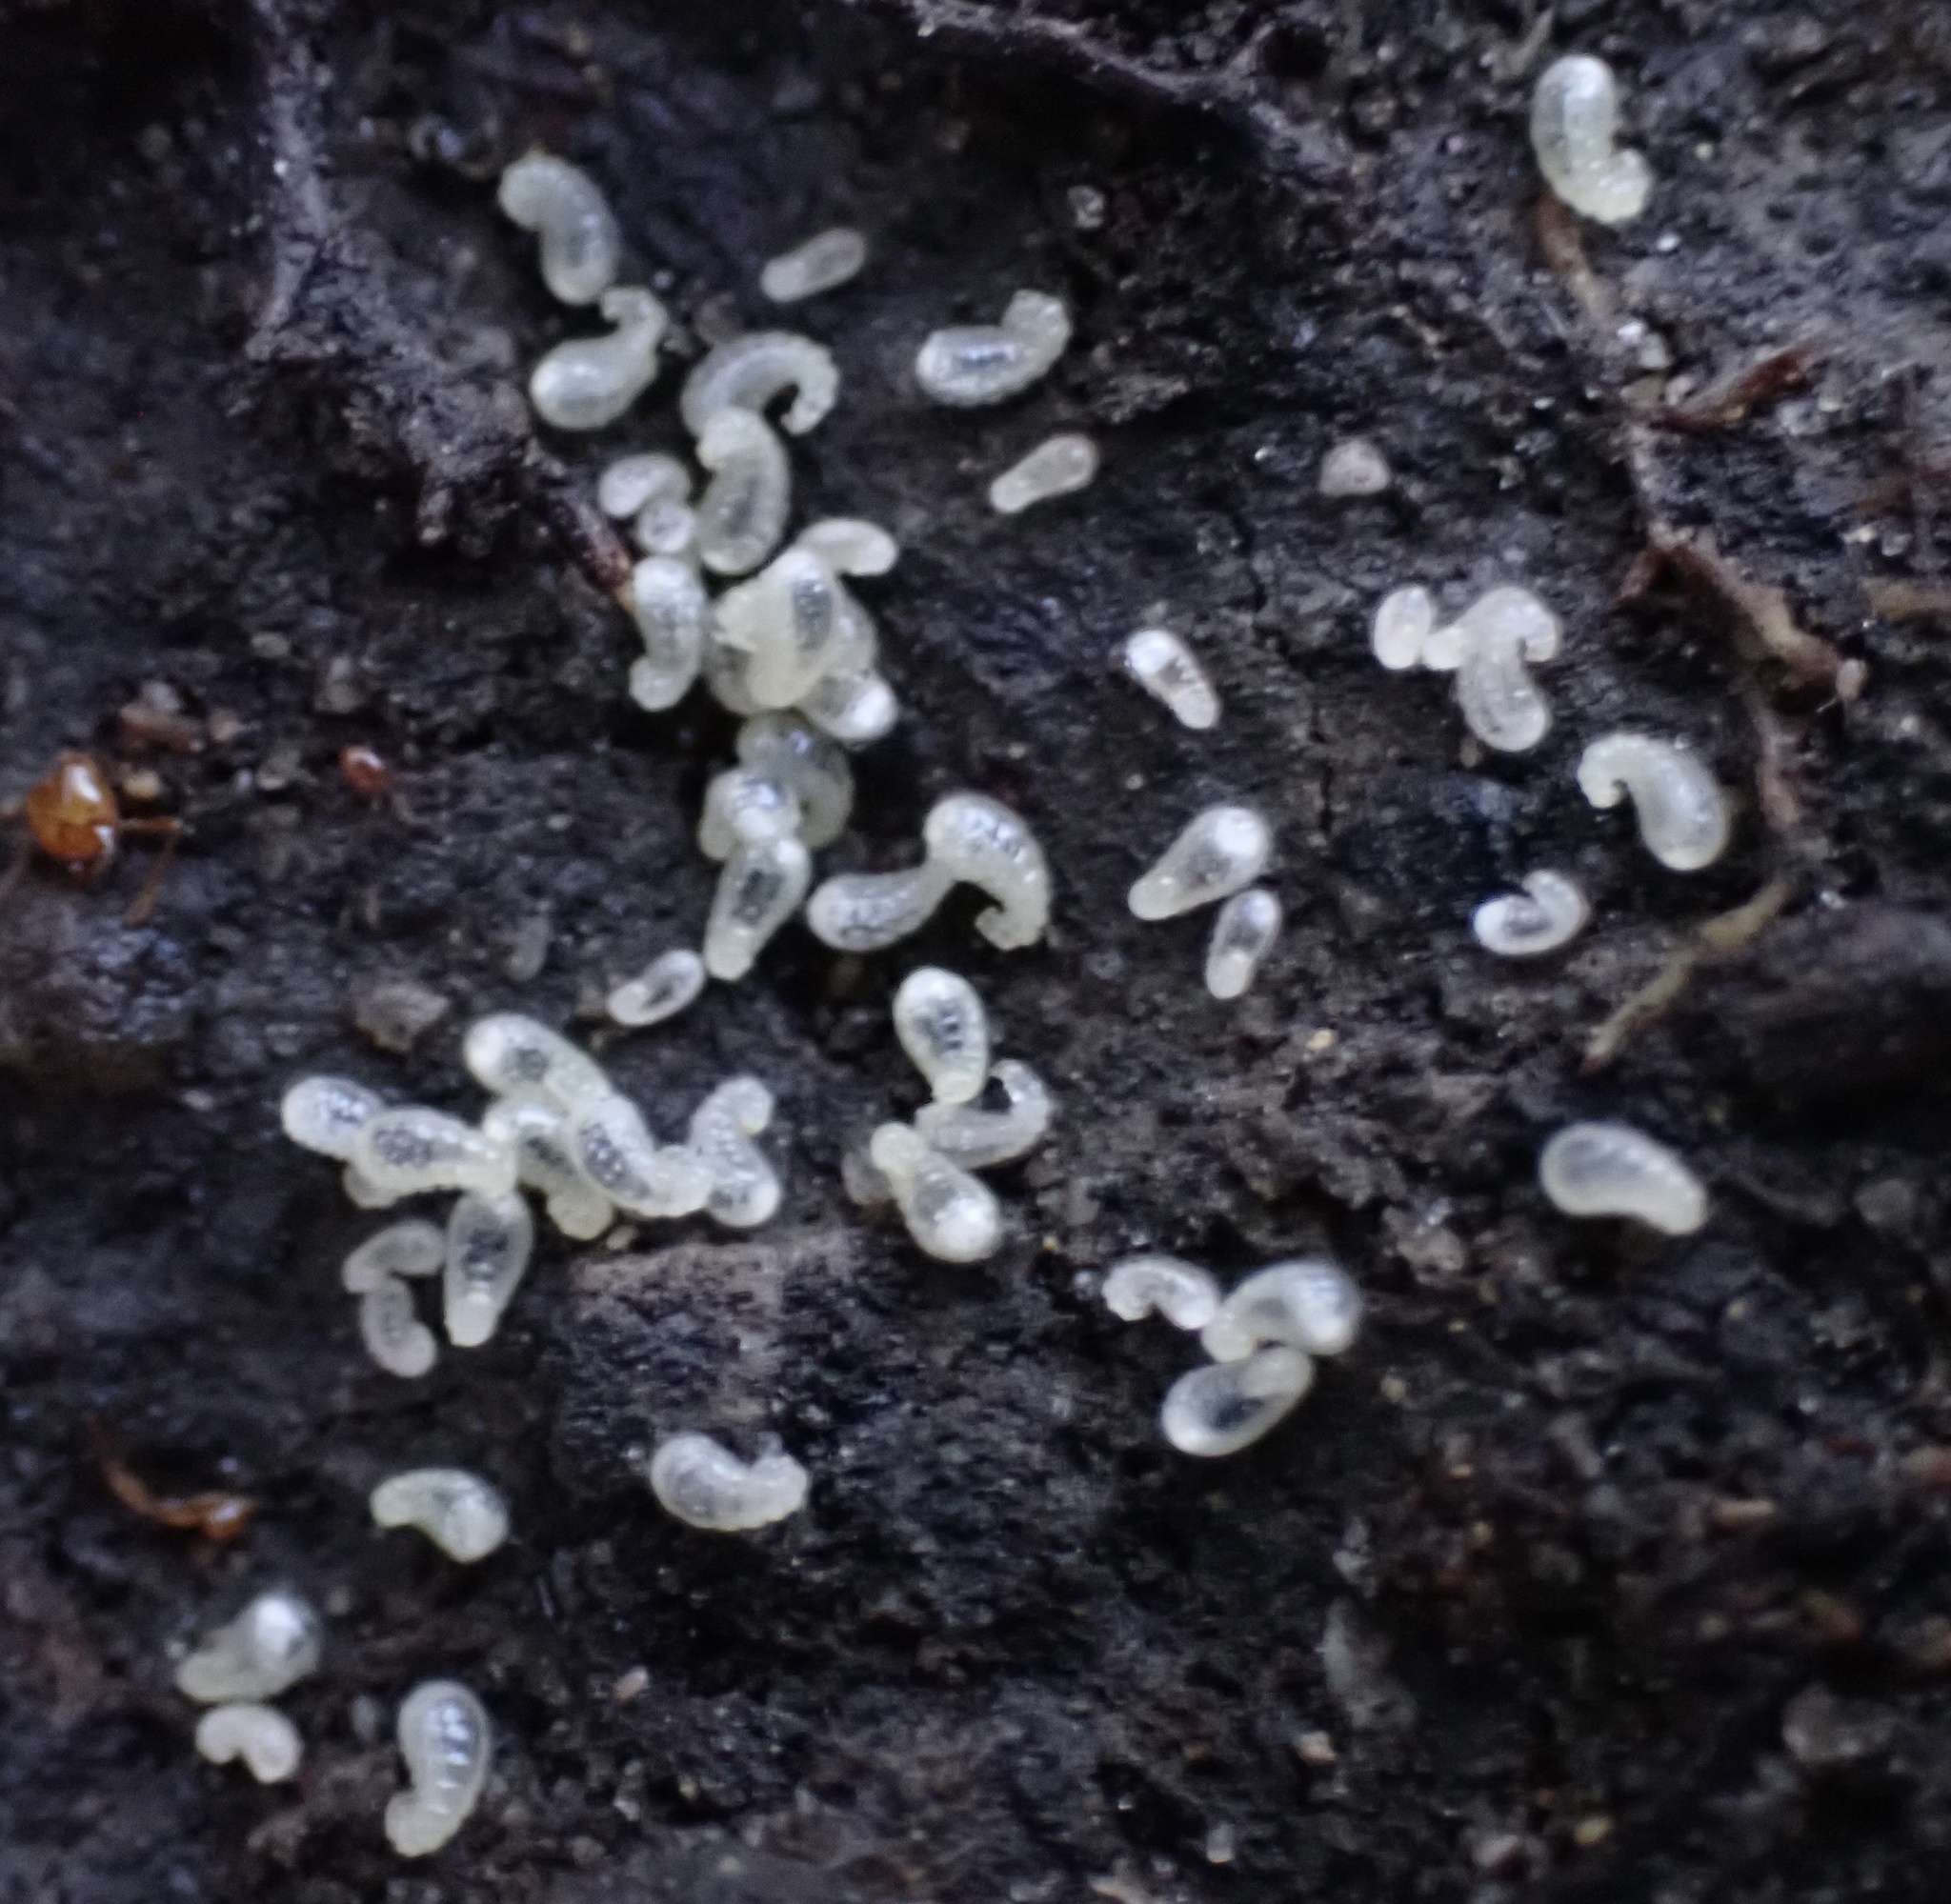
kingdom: Animalia
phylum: Arthropoda
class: Insecta
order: Hymenoptera
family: Formicidae
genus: Aphaenogaster
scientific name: Aphaenogaster
